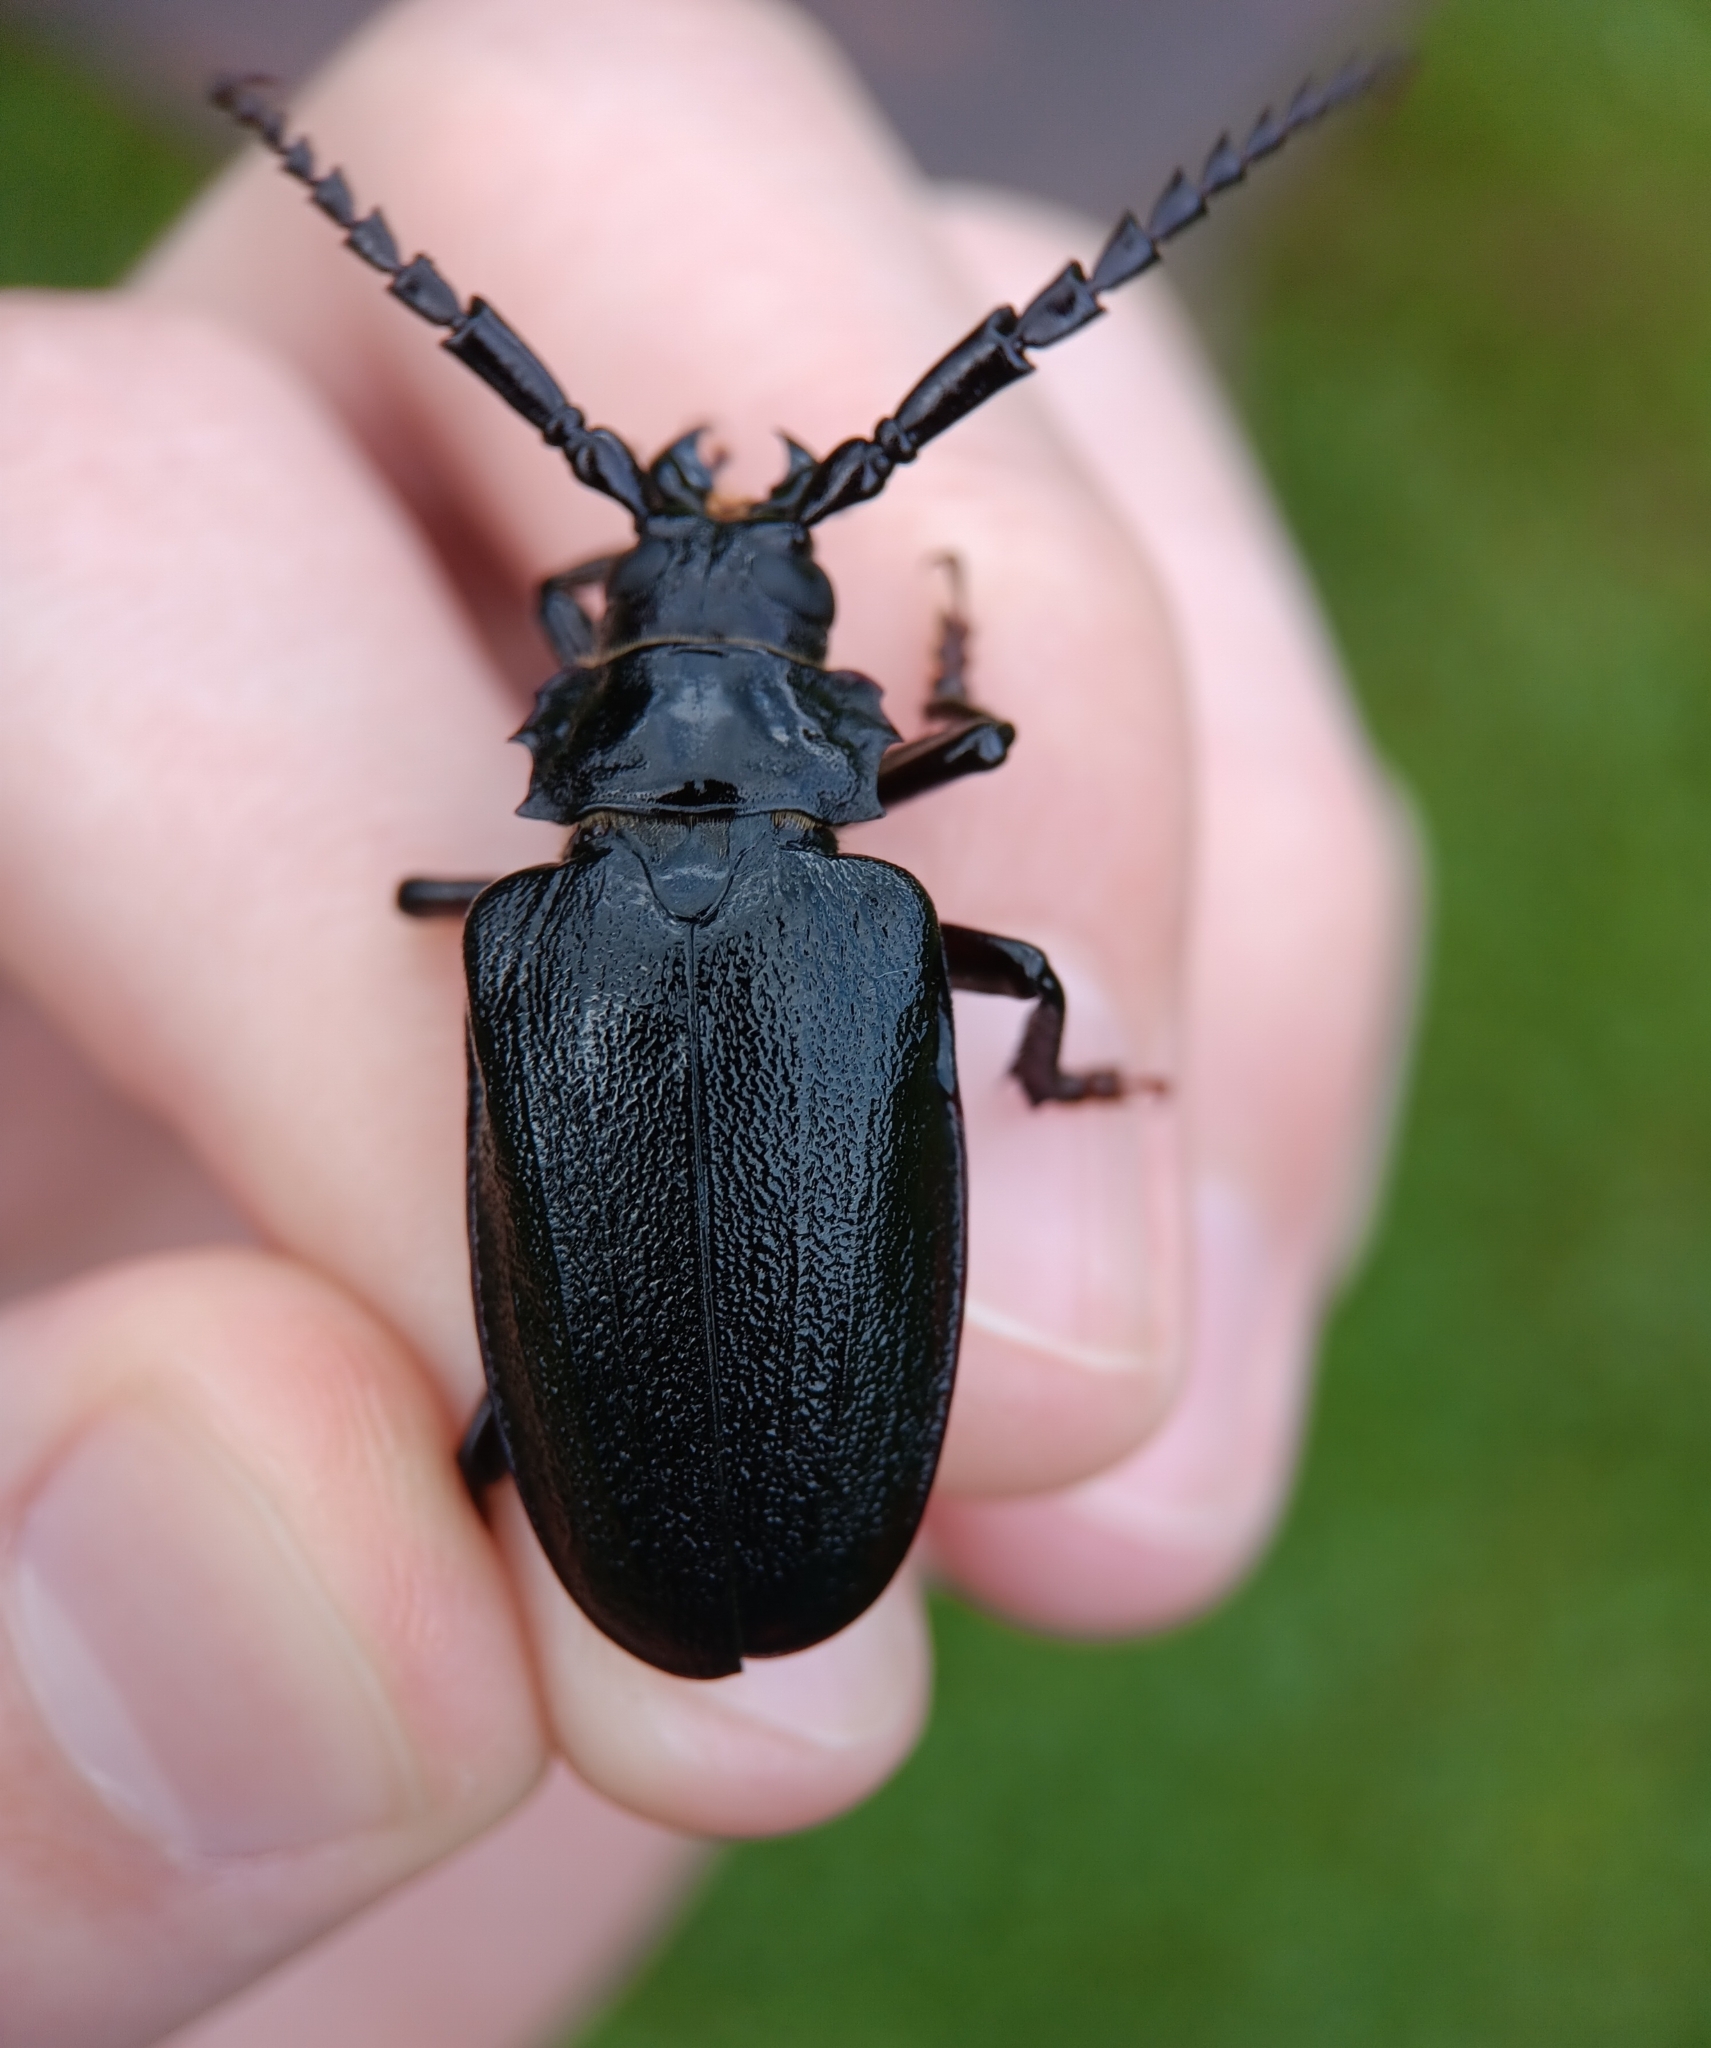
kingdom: Animalia
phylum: Arthropoda
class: Insecta
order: Coleoptera
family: Cerambycidae
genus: Prionus
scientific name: Prionus laticollis
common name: Broad necked prionus
